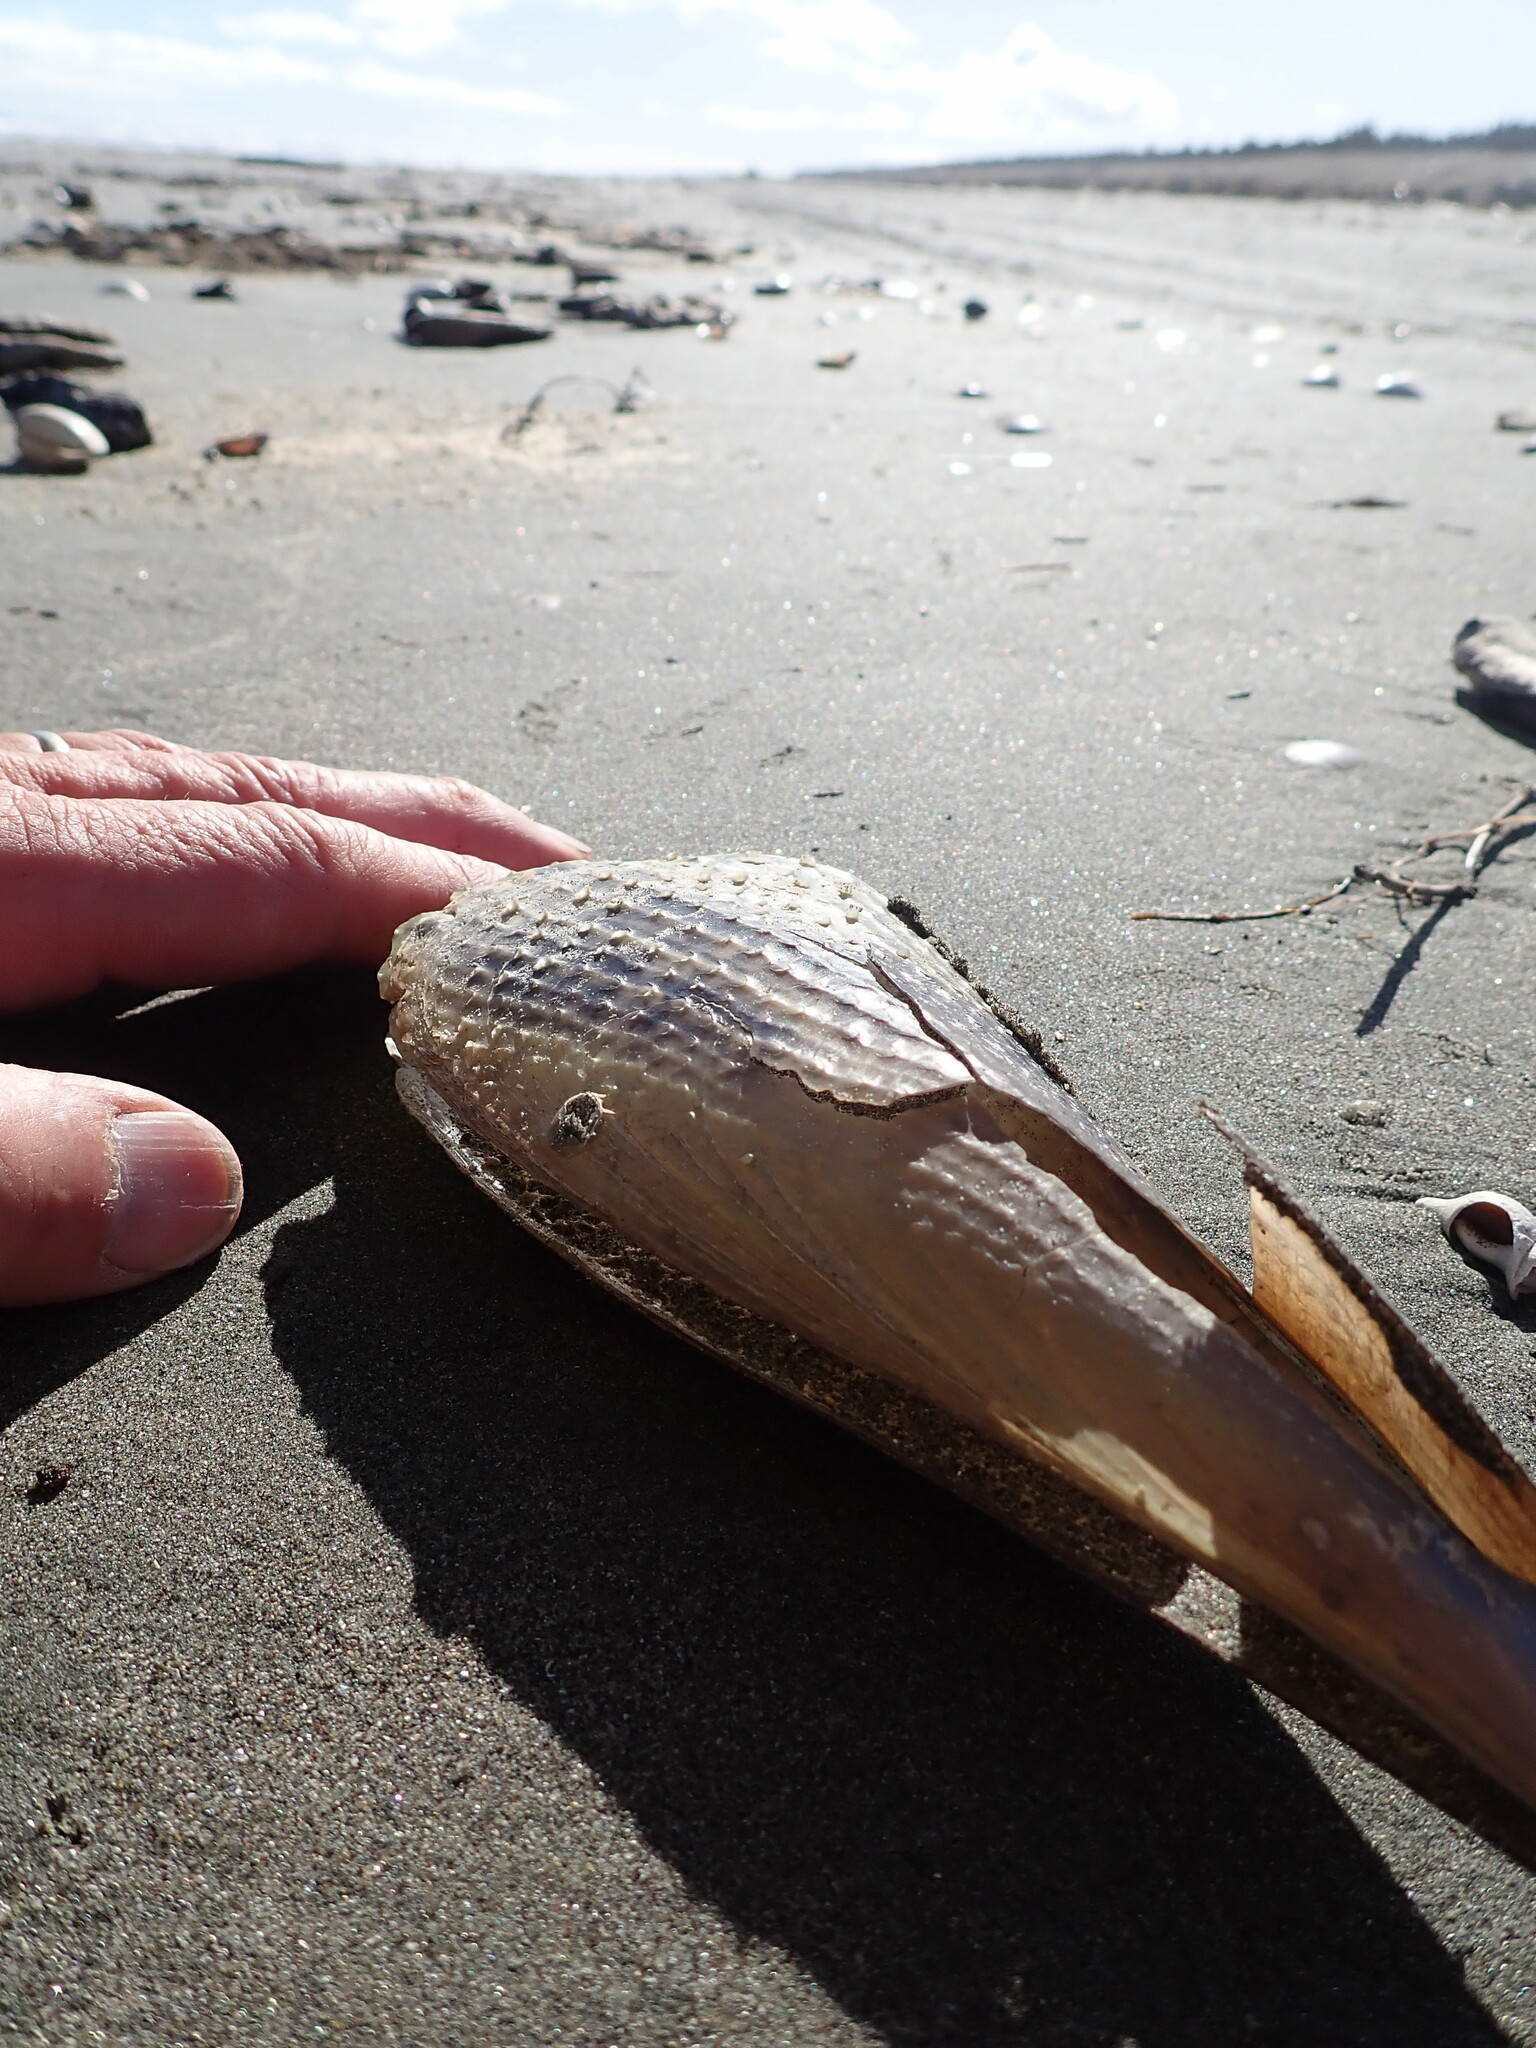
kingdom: Animalia
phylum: Mollusca
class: Bivalvia
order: Ostreida
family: Pinnidae
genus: Atrina
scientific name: Atrina zelandica
